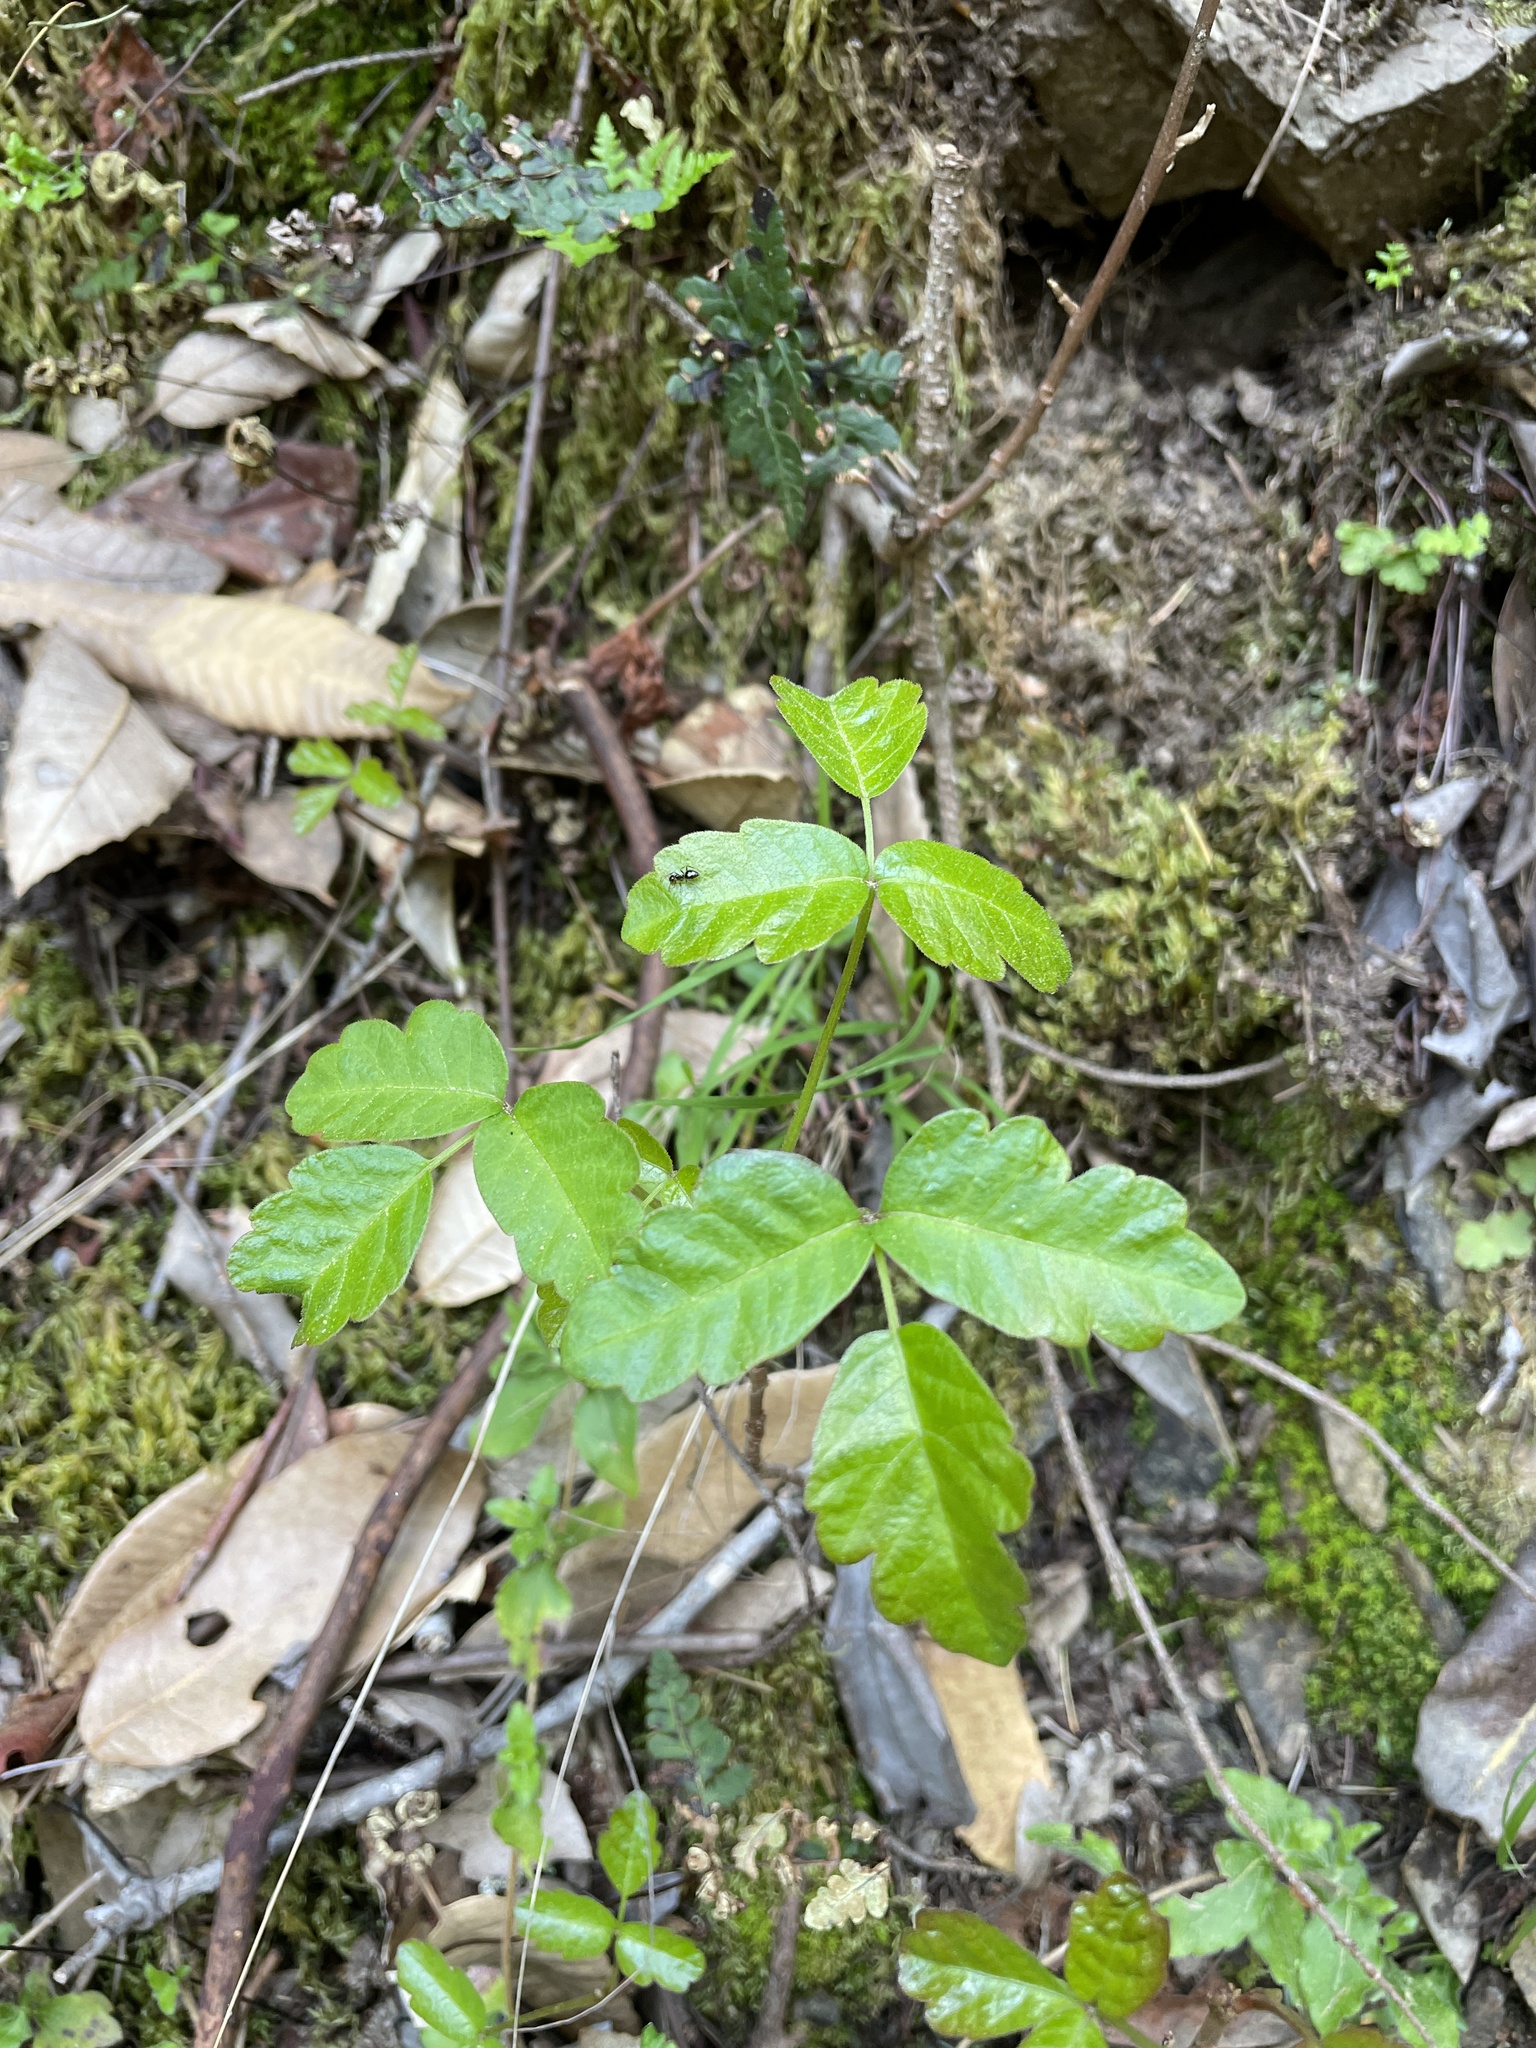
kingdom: Plantae
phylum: Tracheophyta
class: Magnoliopsida
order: Sapindales
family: Anacardiaceae
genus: Toxicodendron
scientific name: Toxicodendron diversilobum
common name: Pacific poison-oak
